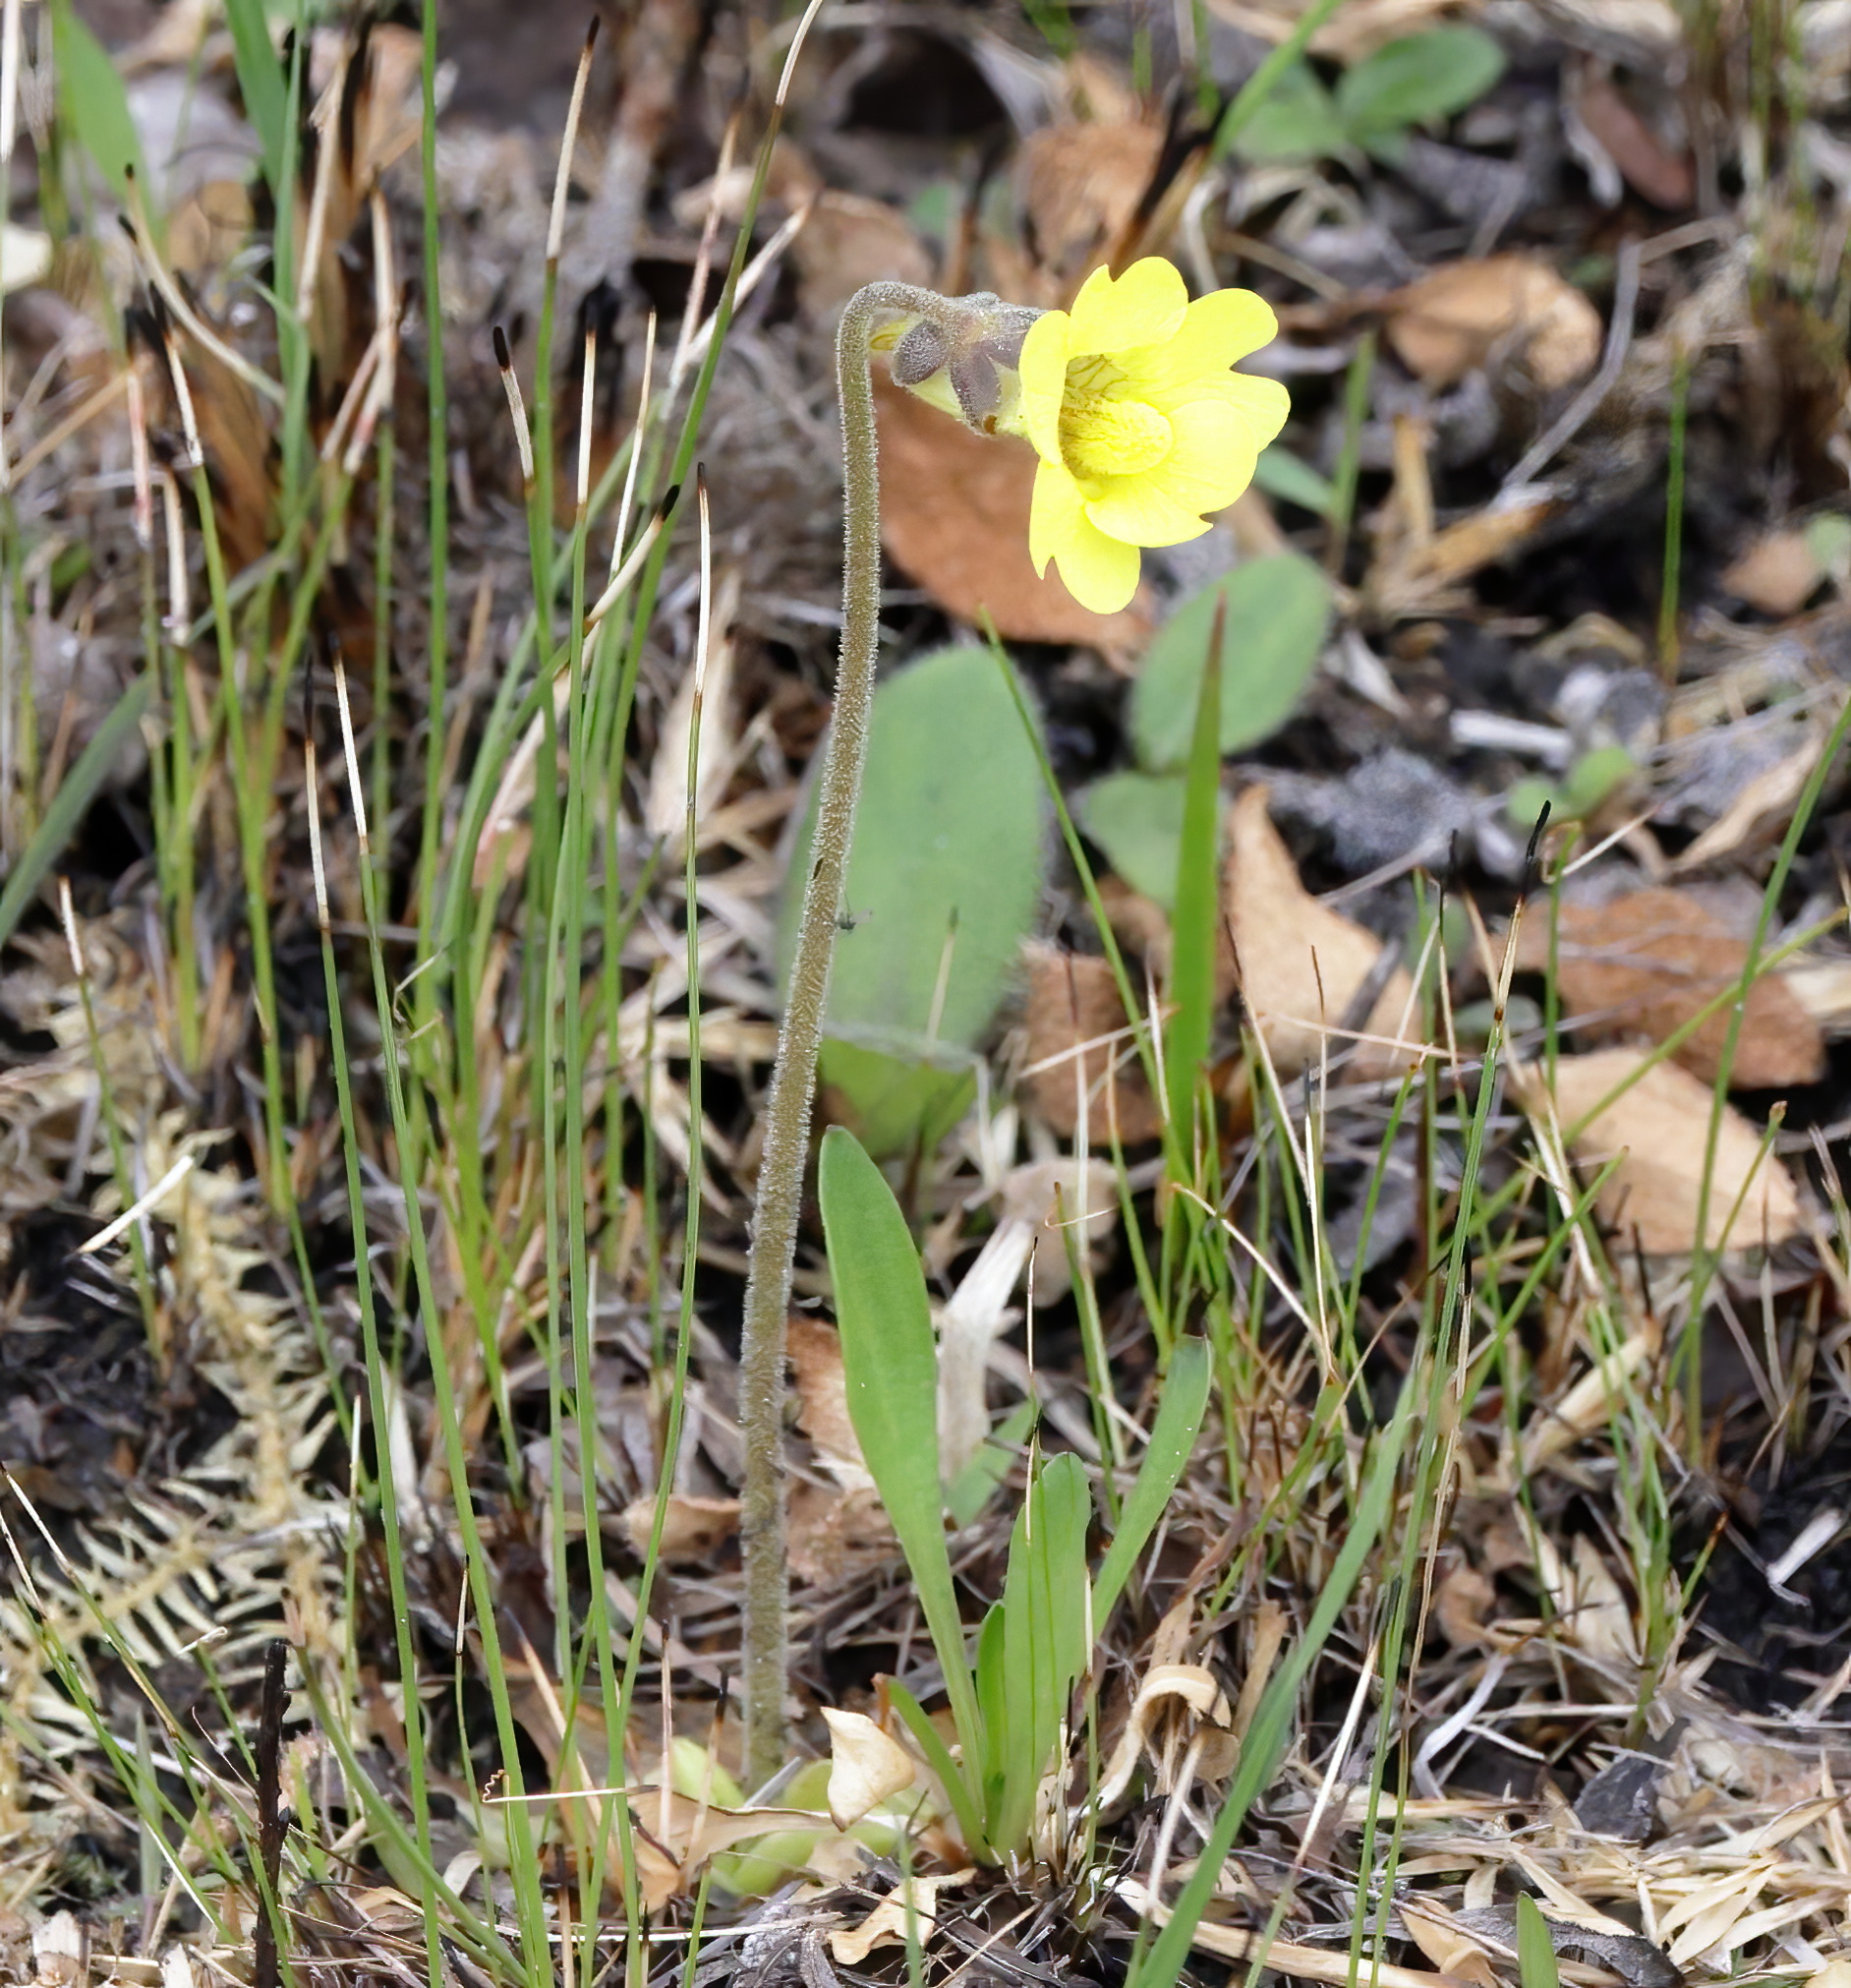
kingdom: Plantae
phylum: Tracheophyta
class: Magnoliopsida
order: Lamiales
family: Lentibulariaceae
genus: Pinguicula
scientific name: Pinguicula lutea
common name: Yellow butterwort
